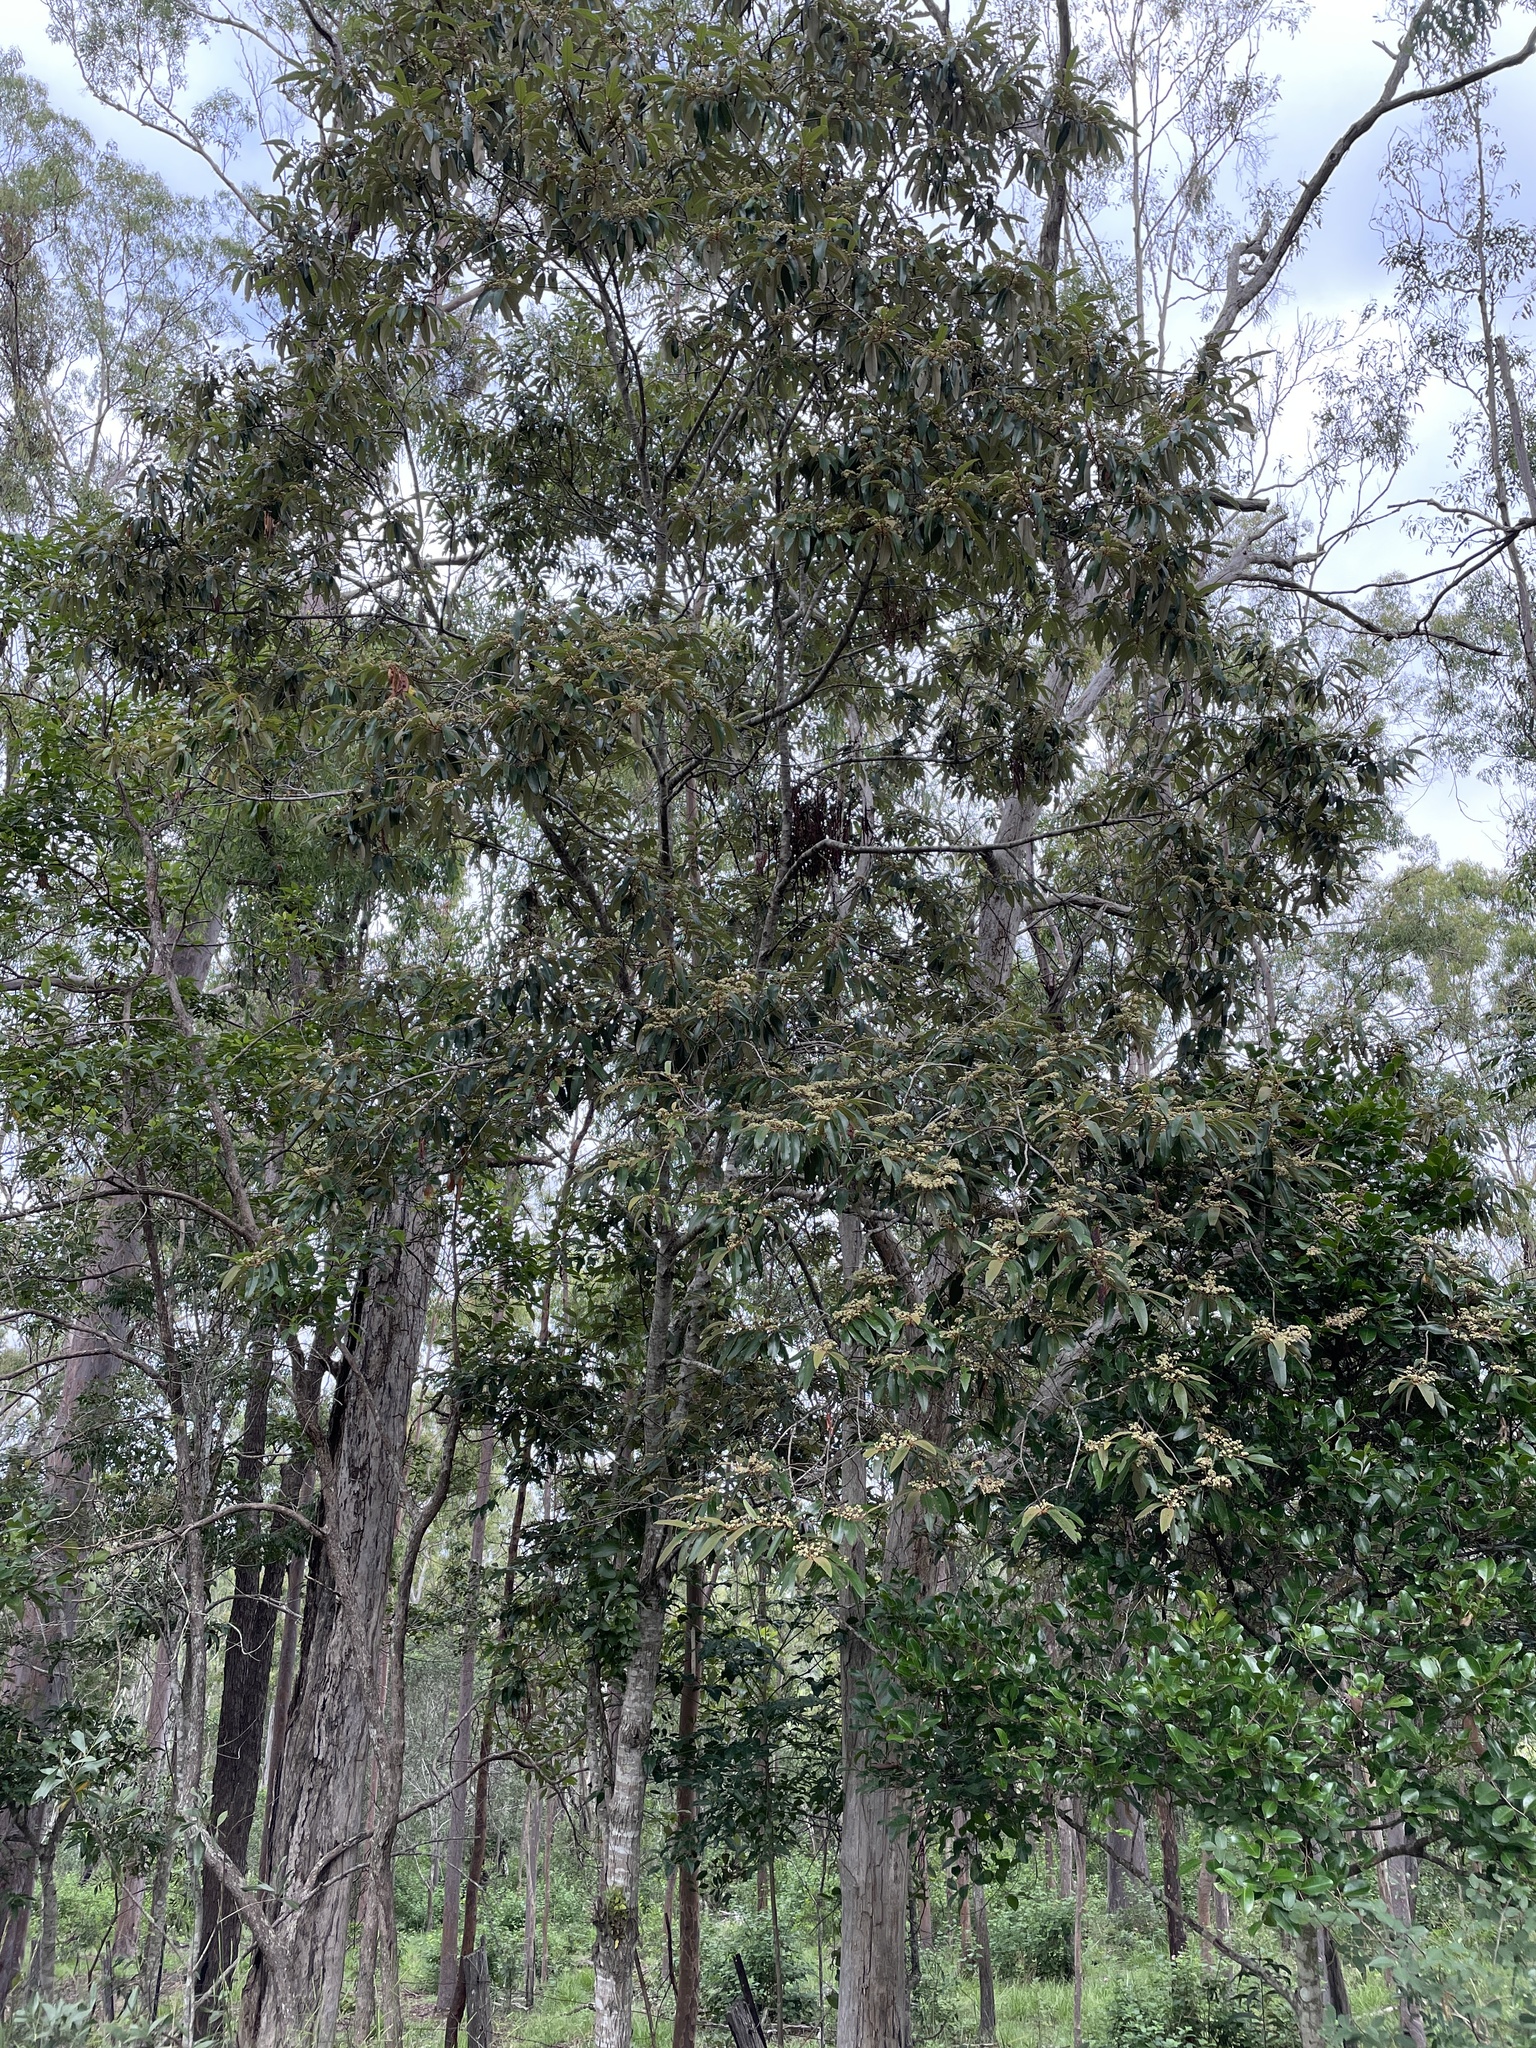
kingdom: Plantae
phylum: Tracheophyta
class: Magnoliopsida
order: Rosales
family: Rhamnaceae
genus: Alphitonia
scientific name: Alphitonia excelsa
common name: Red ash
